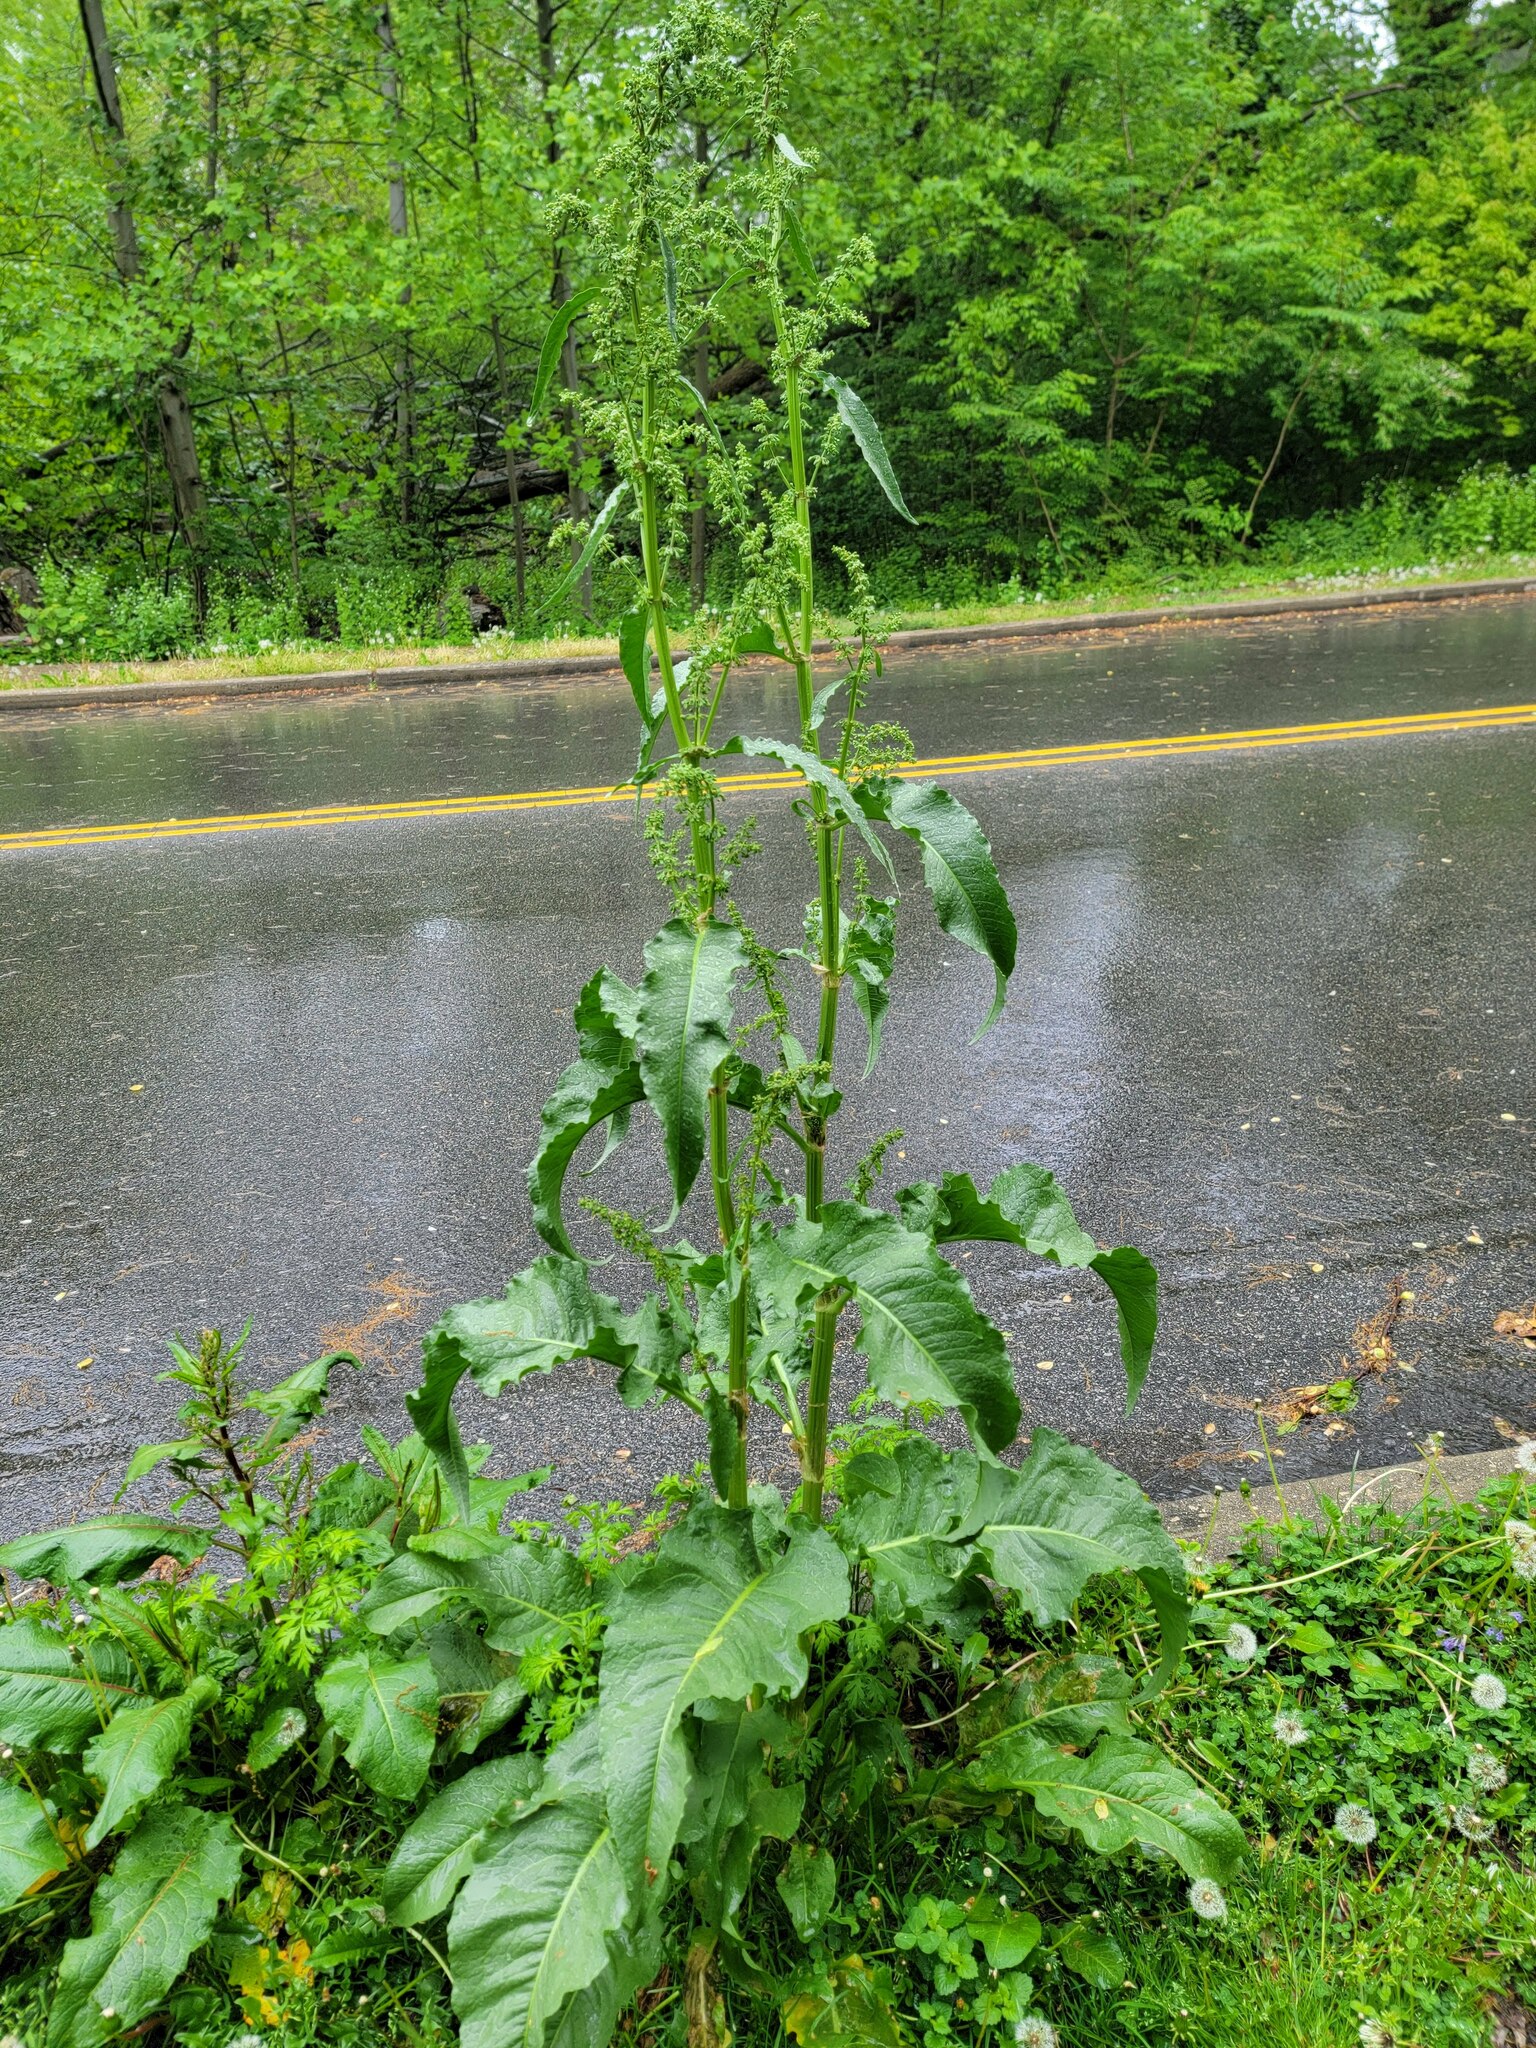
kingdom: Plantae
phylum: Tracheophyta
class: Magnoliopsida
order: Caryophyllales
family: Polygonaceae
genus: Rumex
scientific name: Rumex crispus
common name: Curled dock
